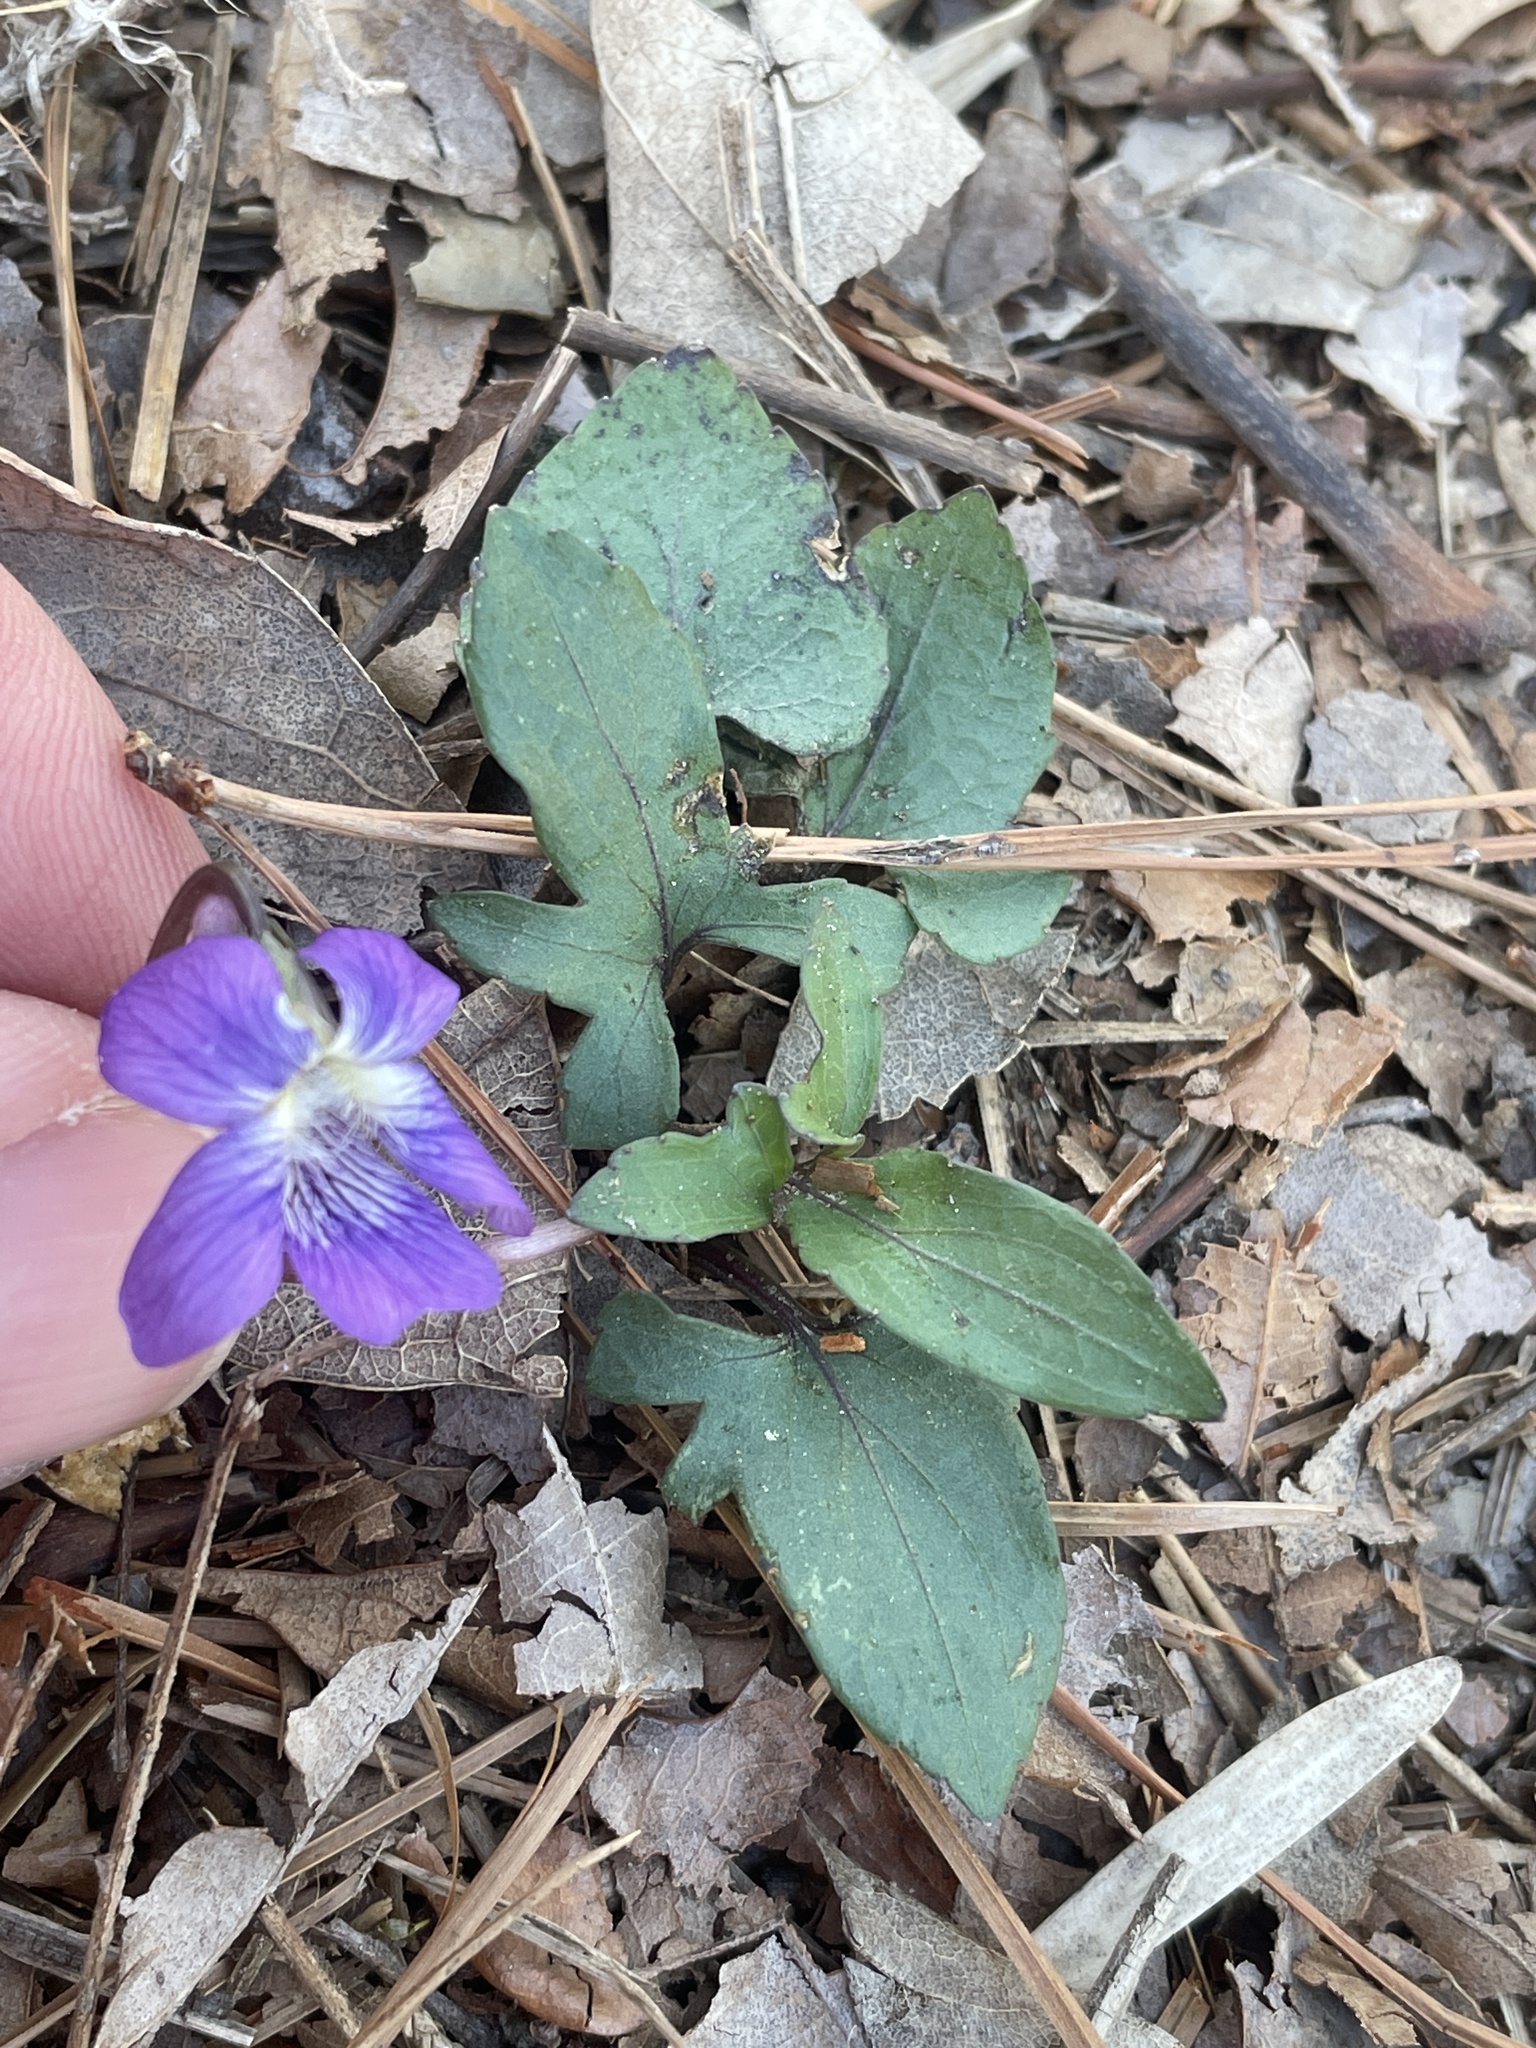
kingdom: Plantae
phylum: Tracheophyta
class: Magnoliopsida
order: Malpighiales
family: Violaceae
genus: Viola
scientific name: Viola palmata
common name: Early blue violet
